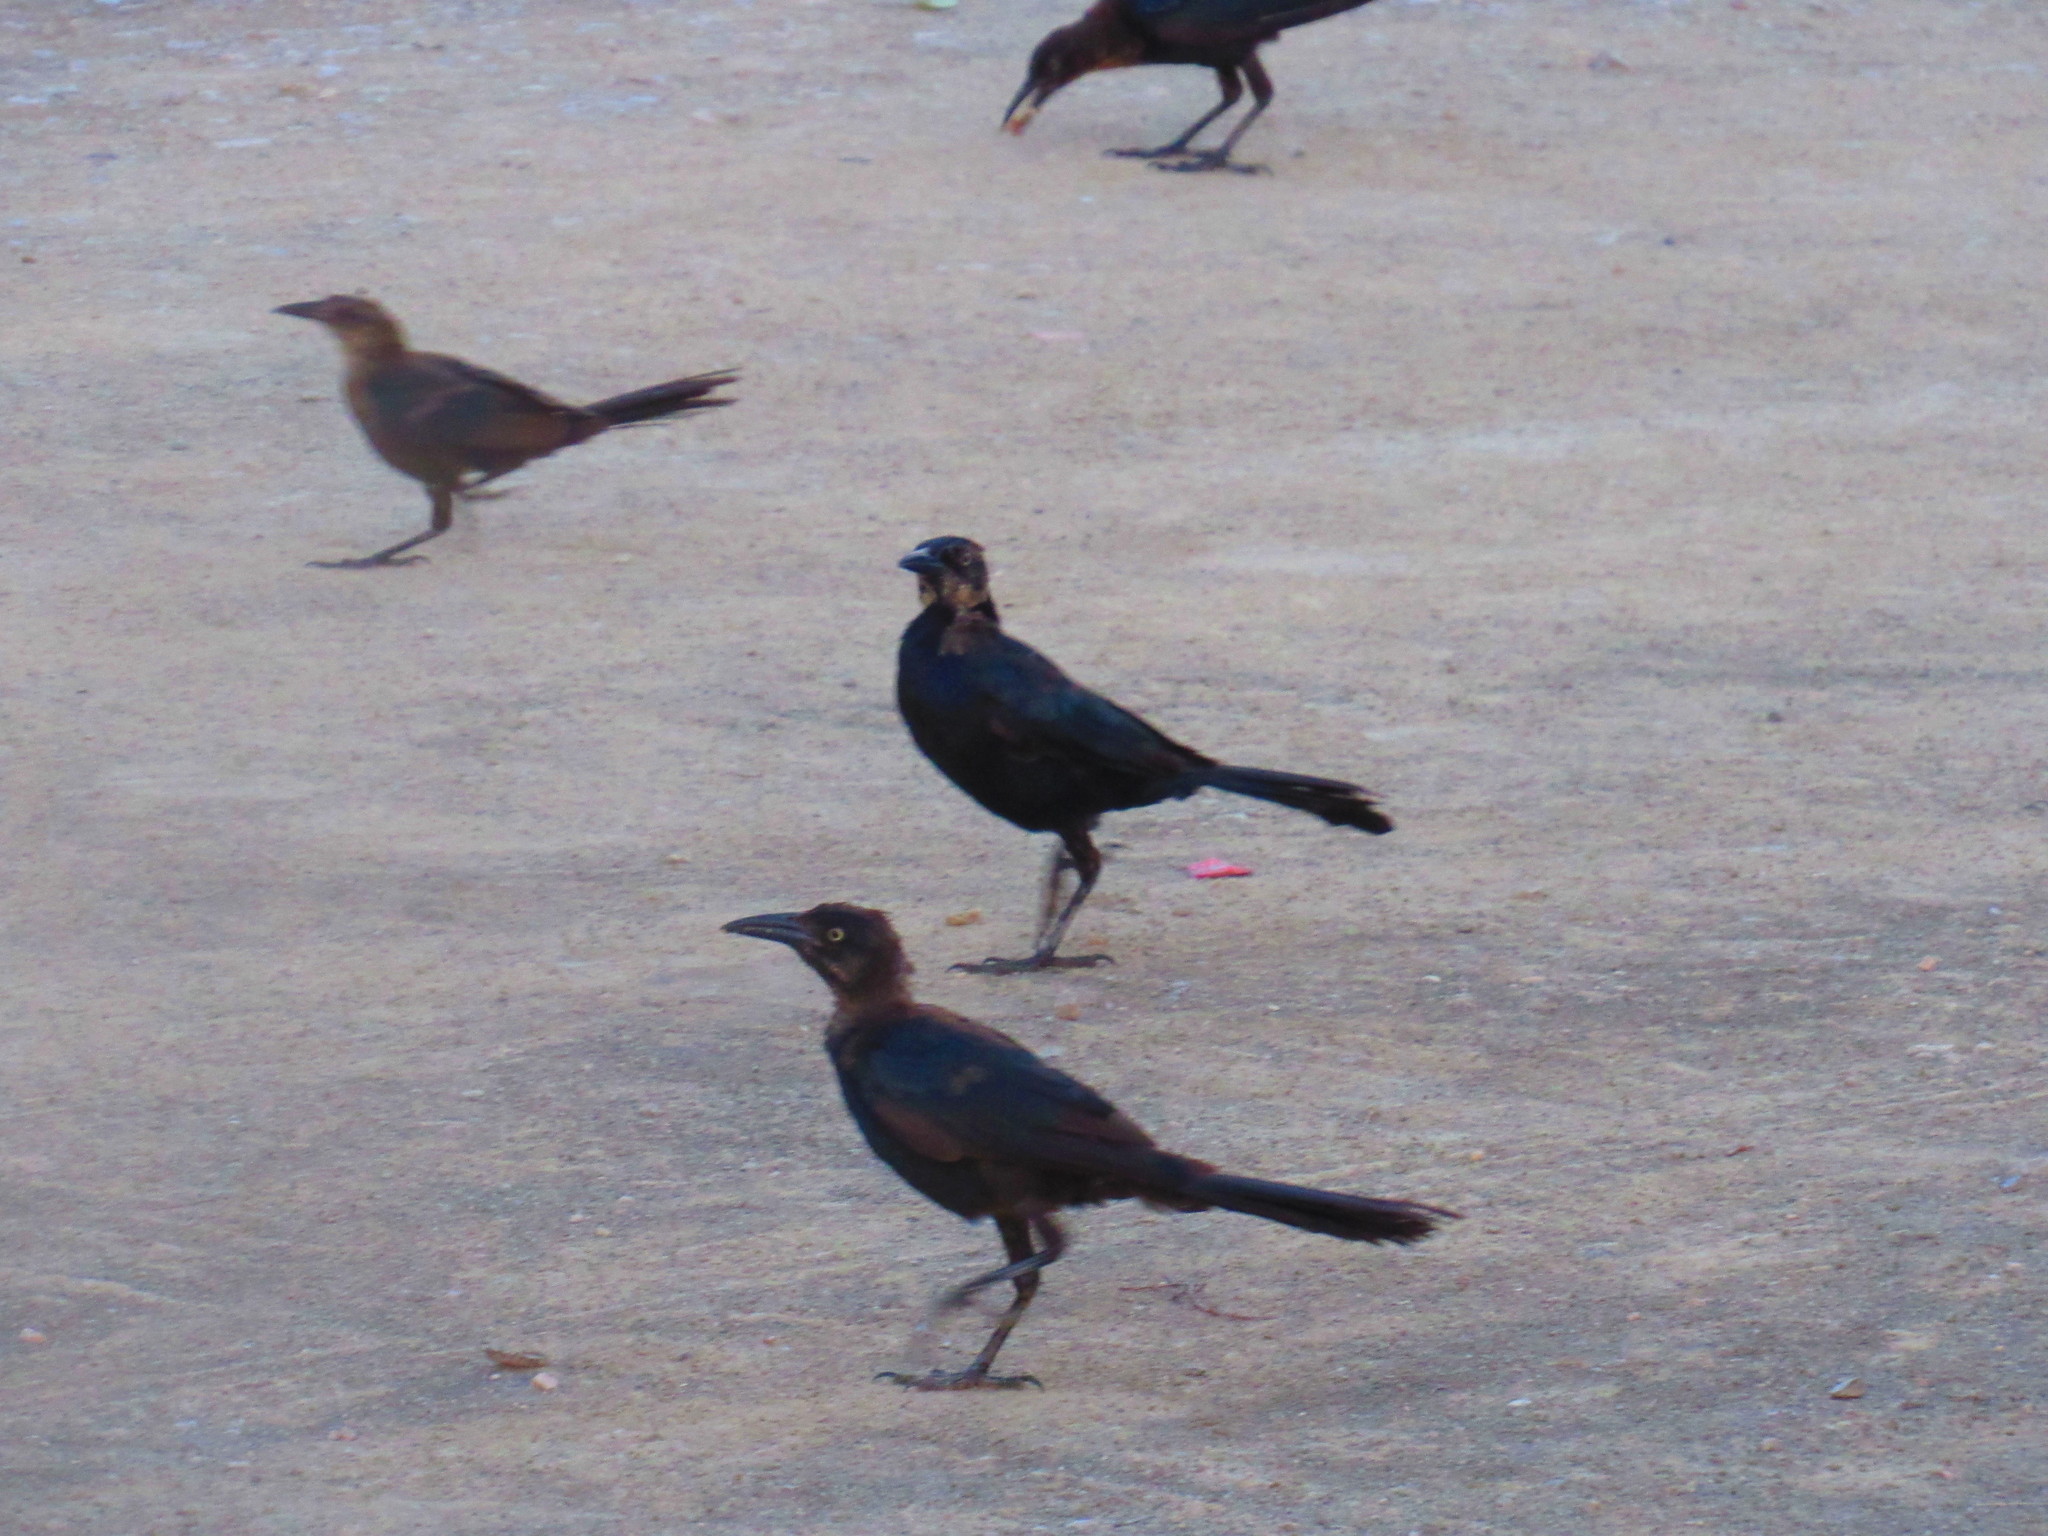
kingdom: Animalia
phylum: Chordata
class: Aves
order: Passeriformes
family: Icteridae
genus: Quiscalus
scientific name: Quiscalus mexicanus
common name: Great-tailed grackle
